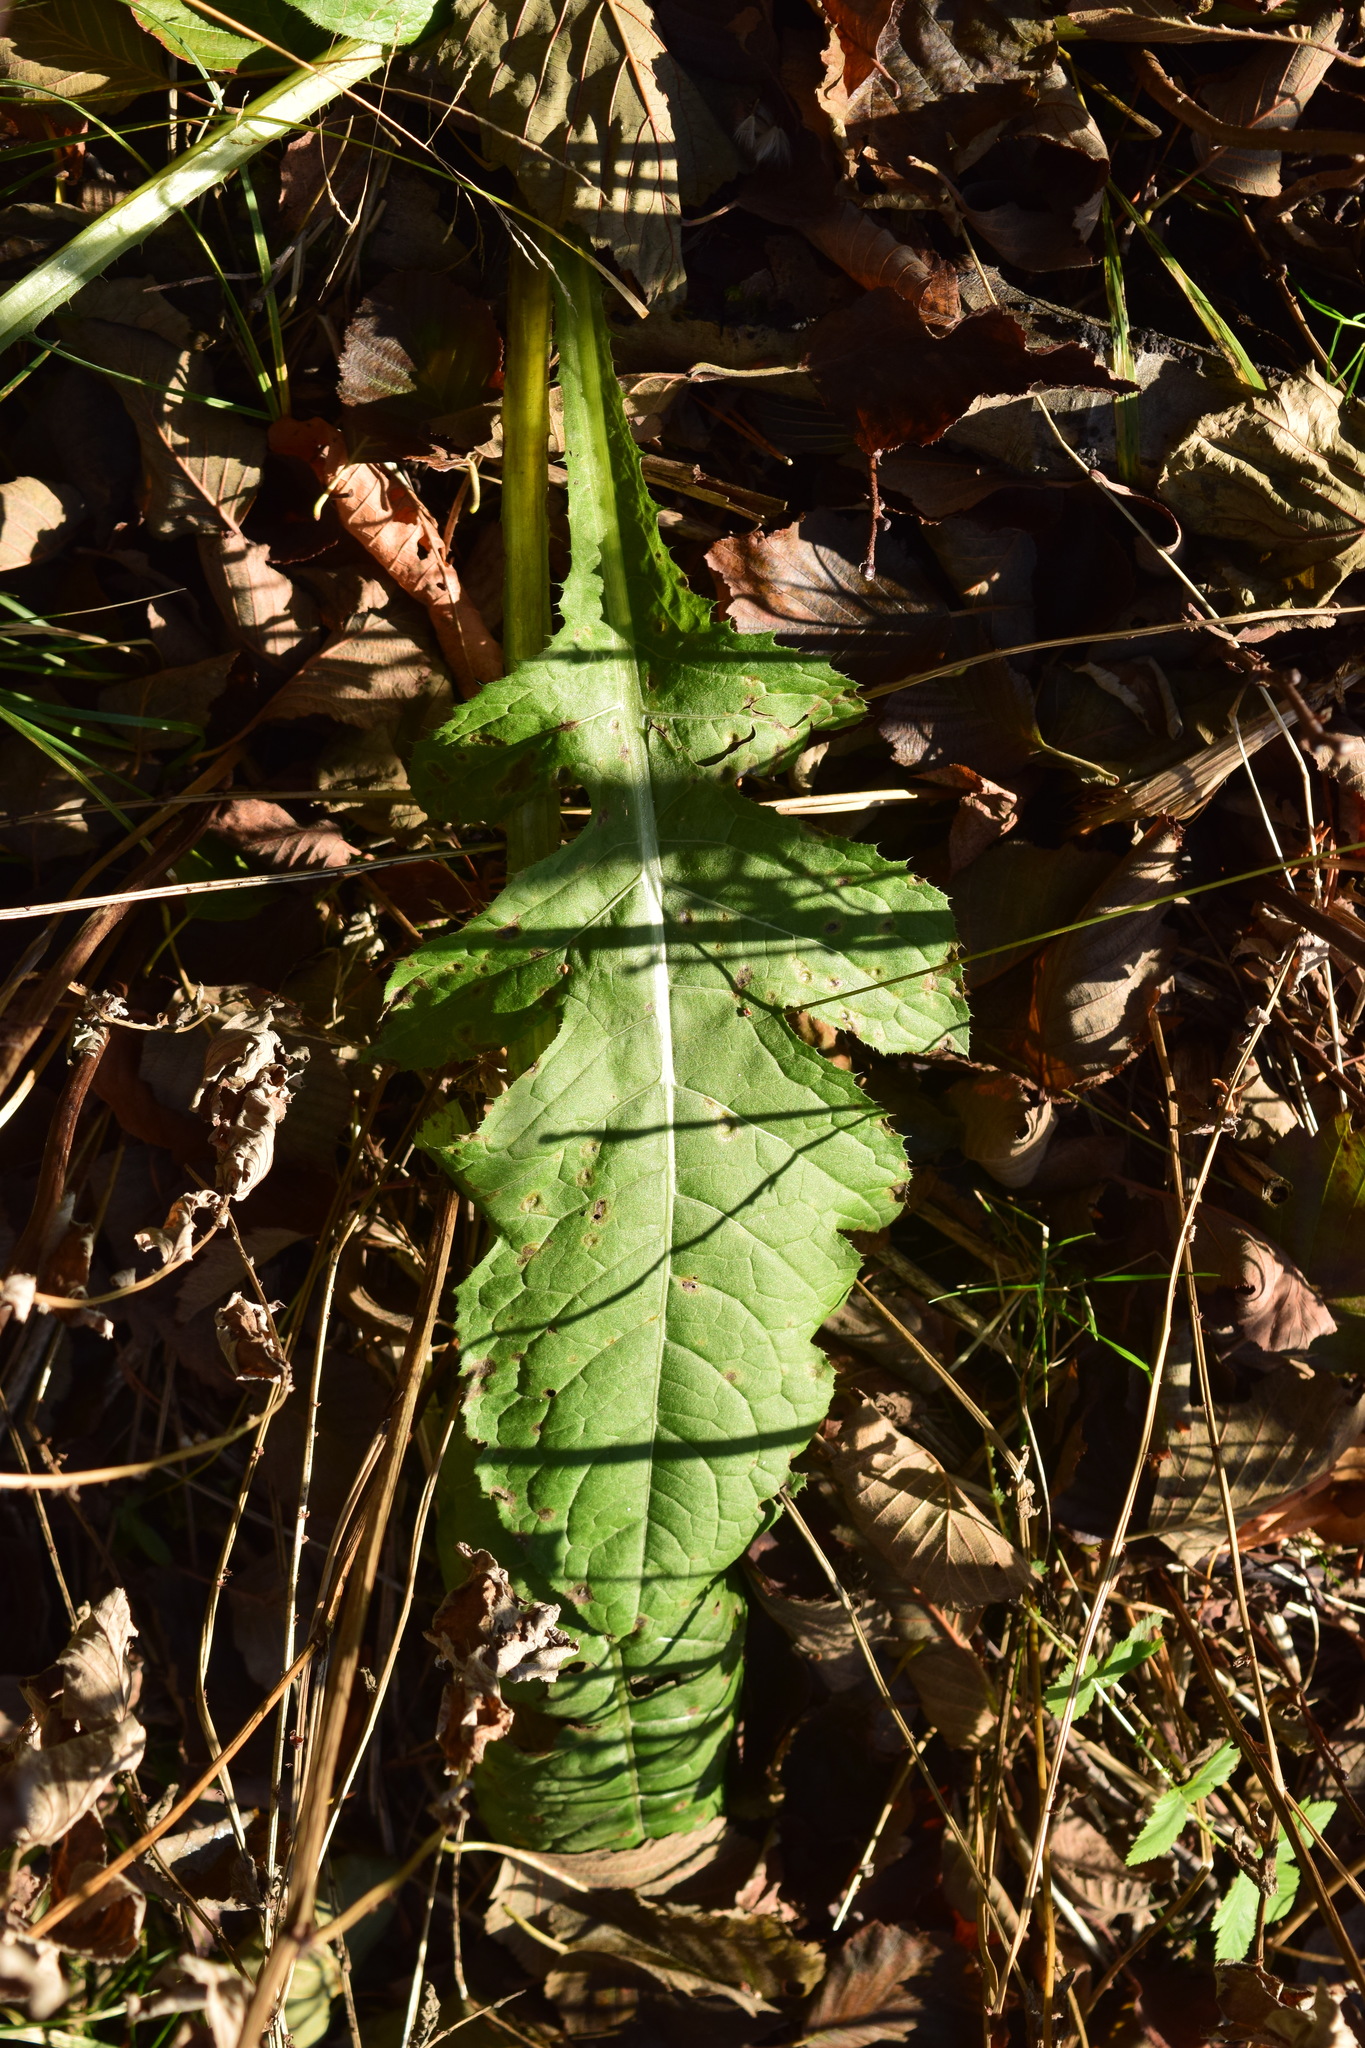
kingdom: Plantae
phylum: Tracheophyta
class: Magnoliopsida
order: Asterales
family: Asteraceae
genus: Cirsium
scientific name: Cirsium oleraceum
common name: Cabbage thistle
